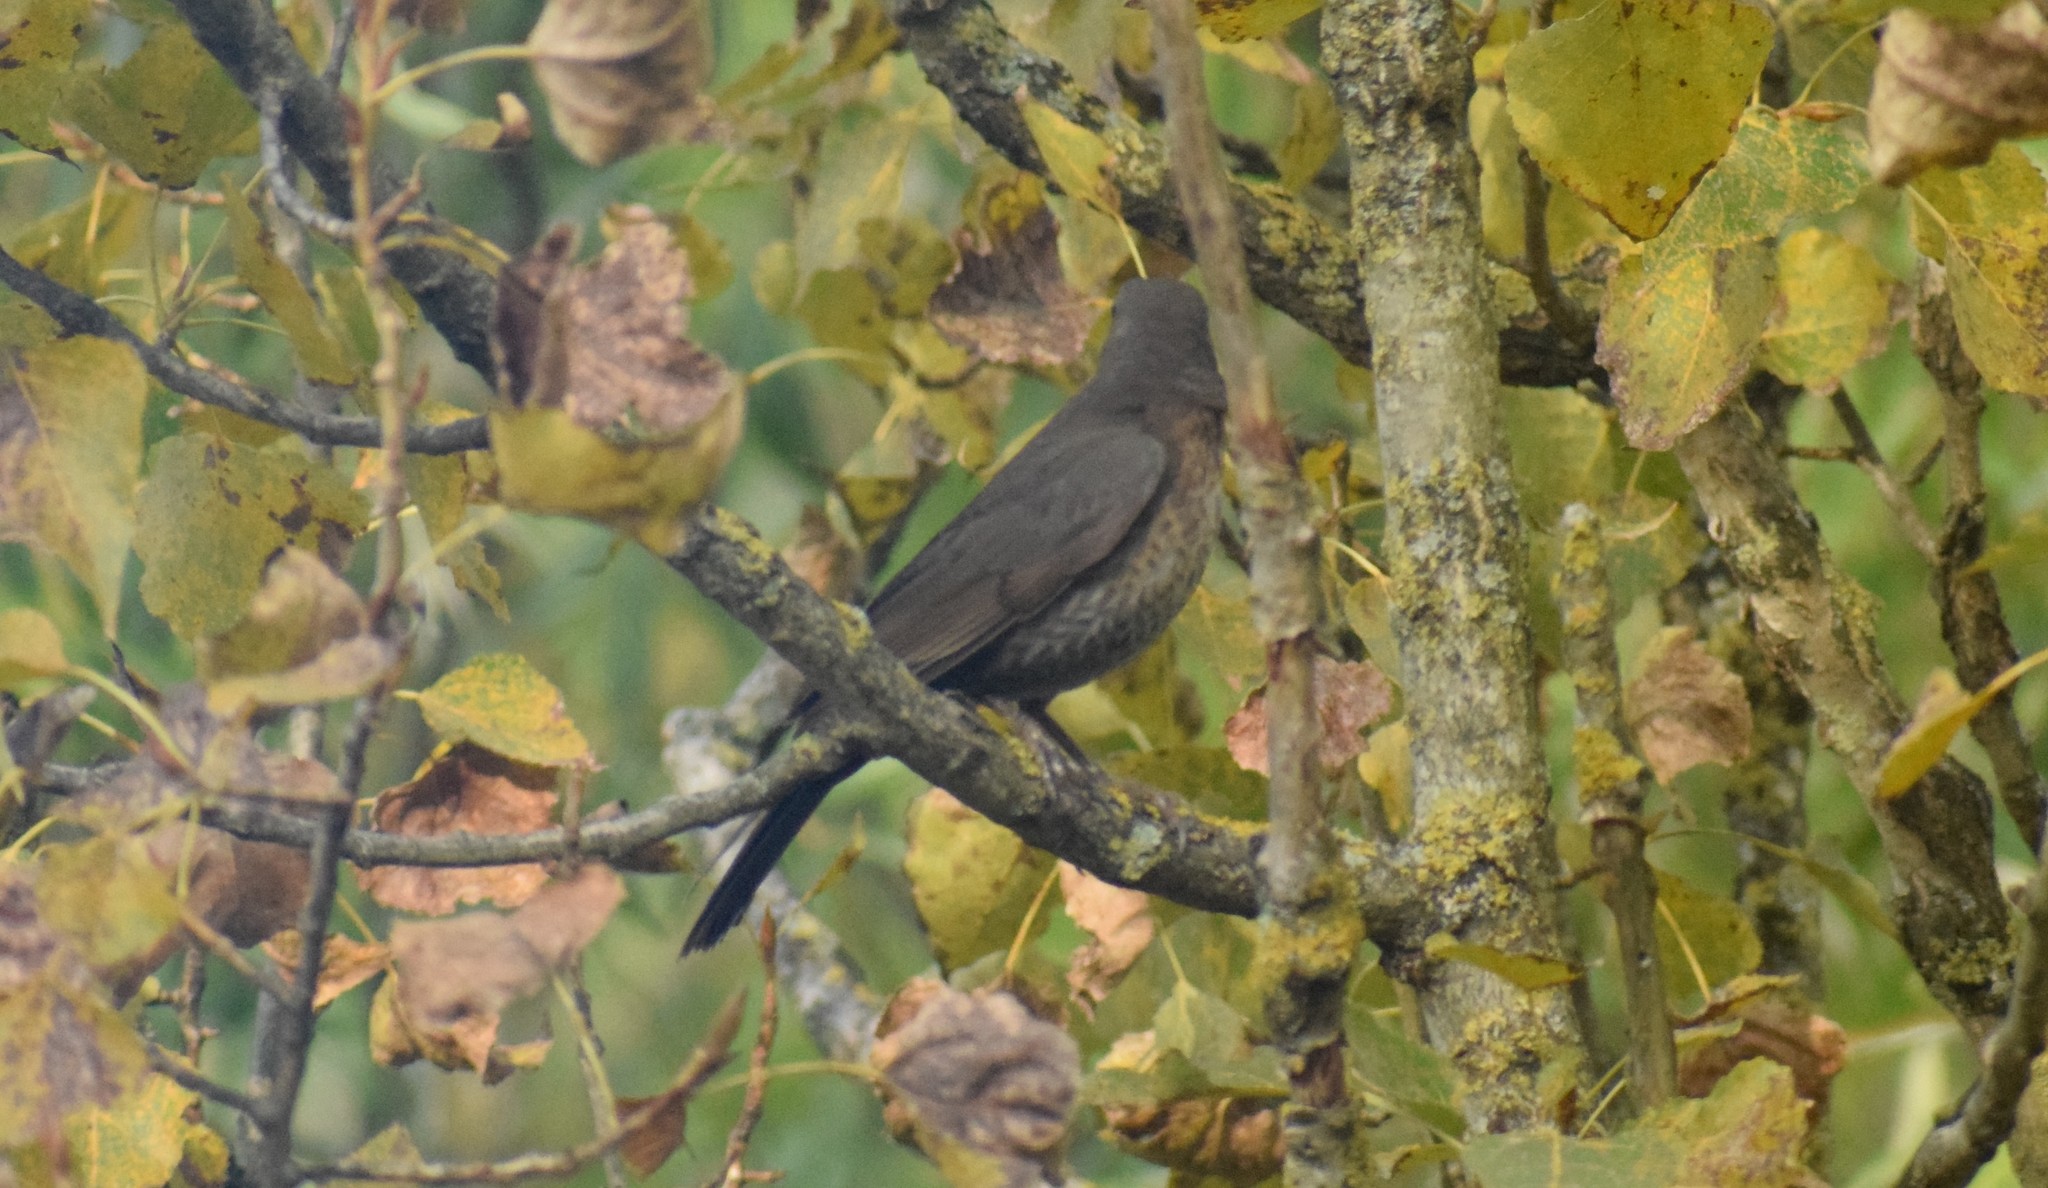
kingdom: Animalia
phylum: Chordata
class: Aves
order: Passeriformes
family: Turdidae
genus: Turdus
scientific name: Turdus merula
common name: Common blackbird
